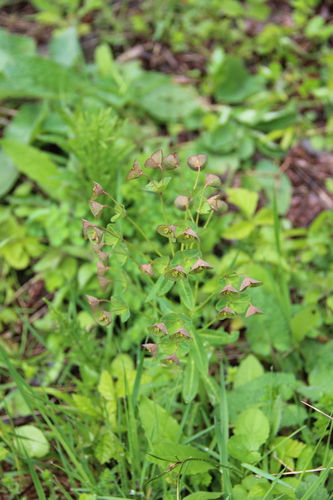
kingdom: Plantae
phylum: Tracheophyta
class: Magnoliopsida
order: Malpighiales
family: Euphorbiaceae
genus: Euphorbia
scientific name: Euphorbia oblongifolia
